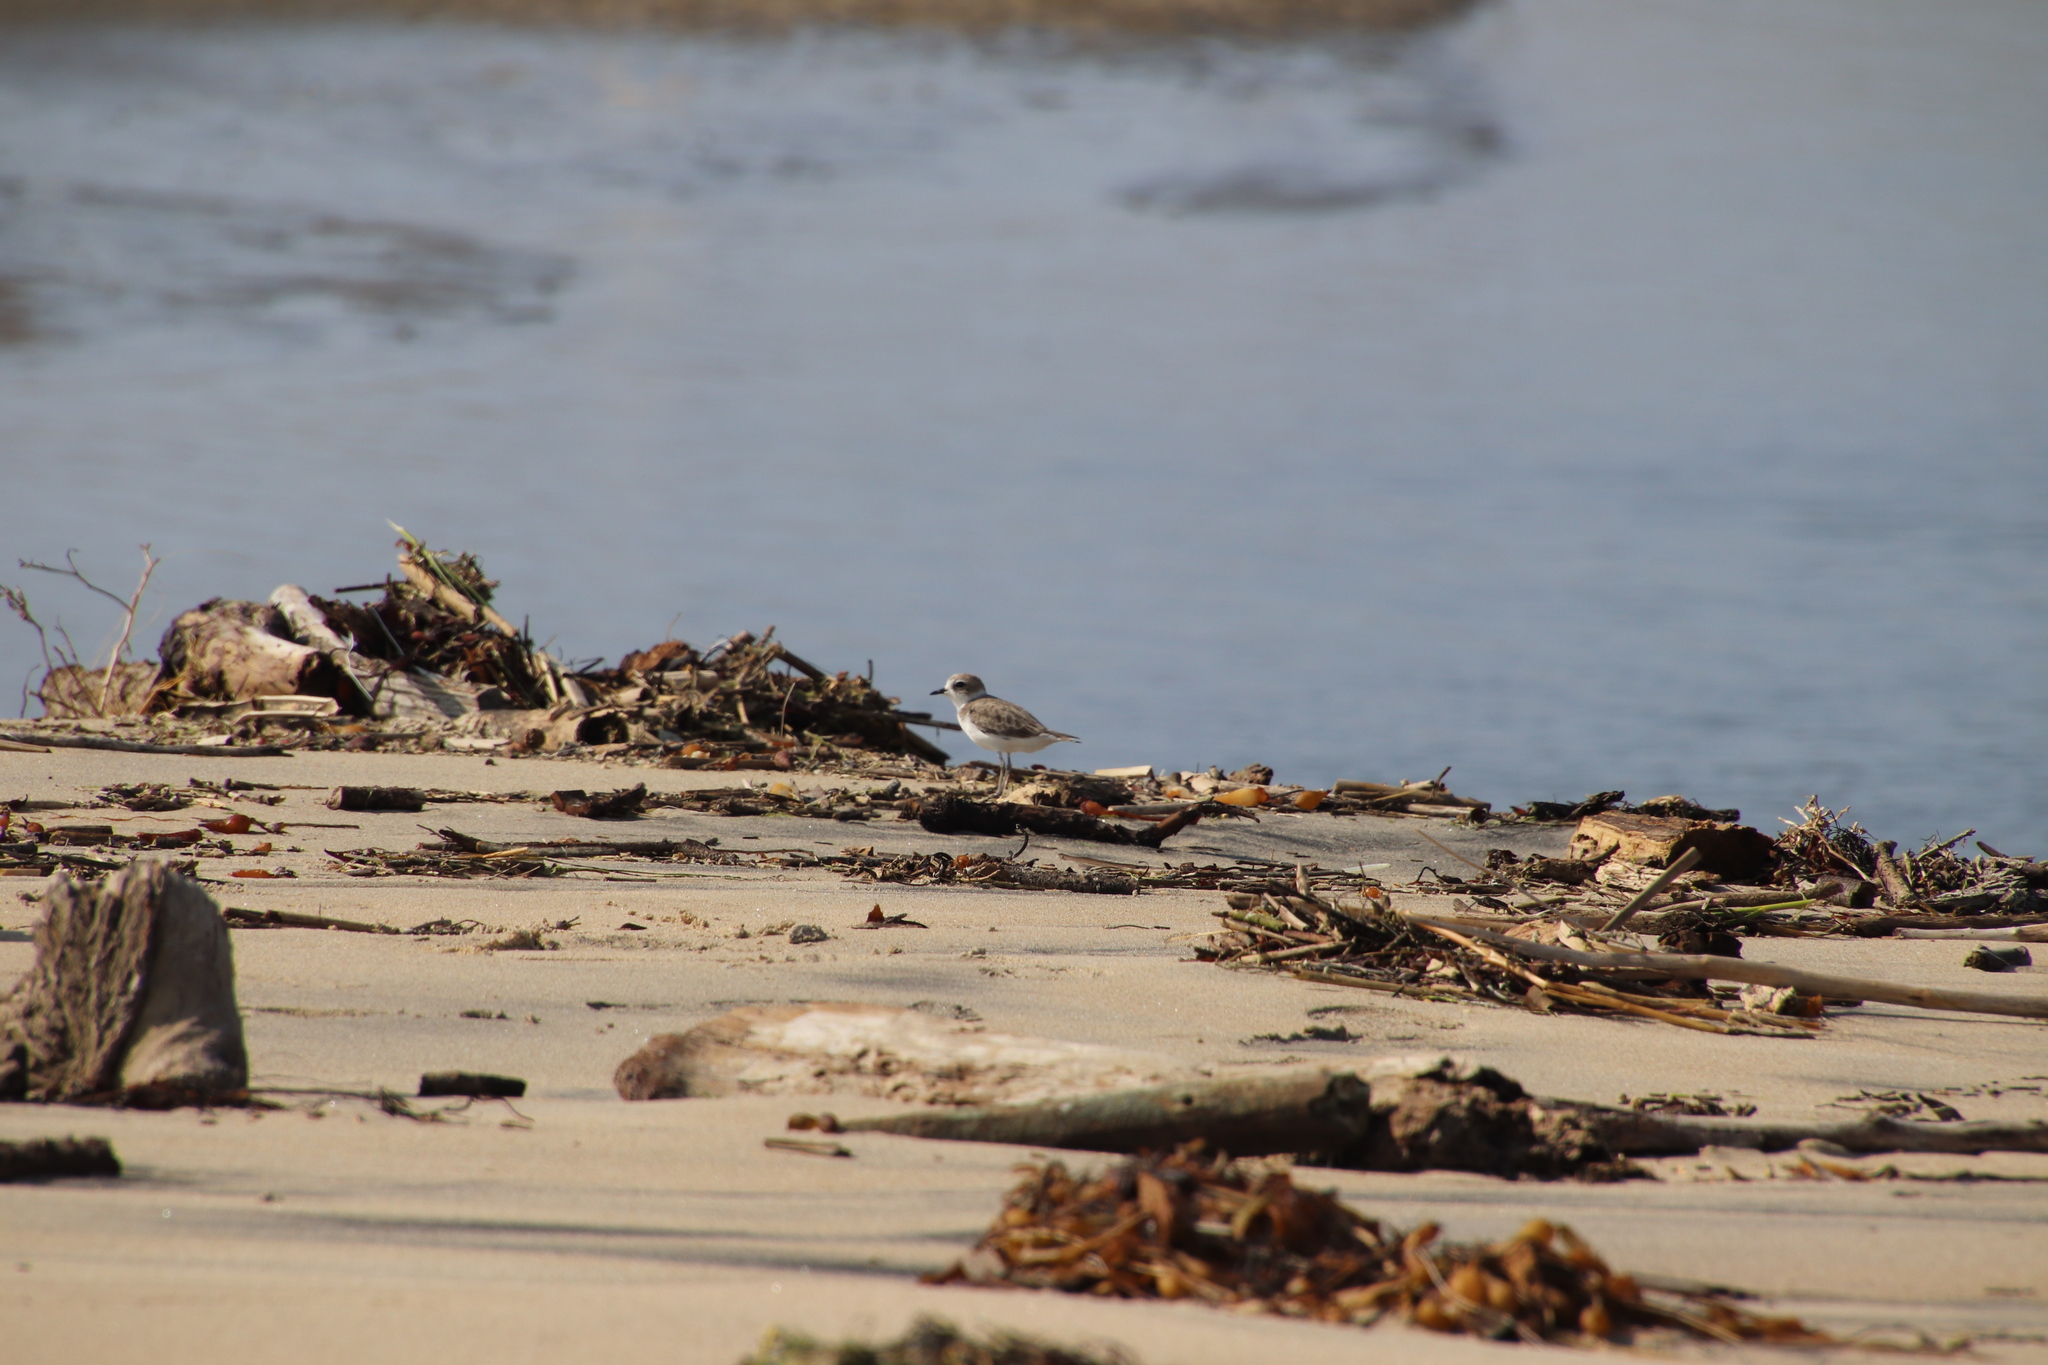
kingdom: Animalia
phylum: Chordata
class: Aves
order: Charadriiformes
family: Charadriidae
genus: Anarhynchus
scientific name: Anarhynchus
